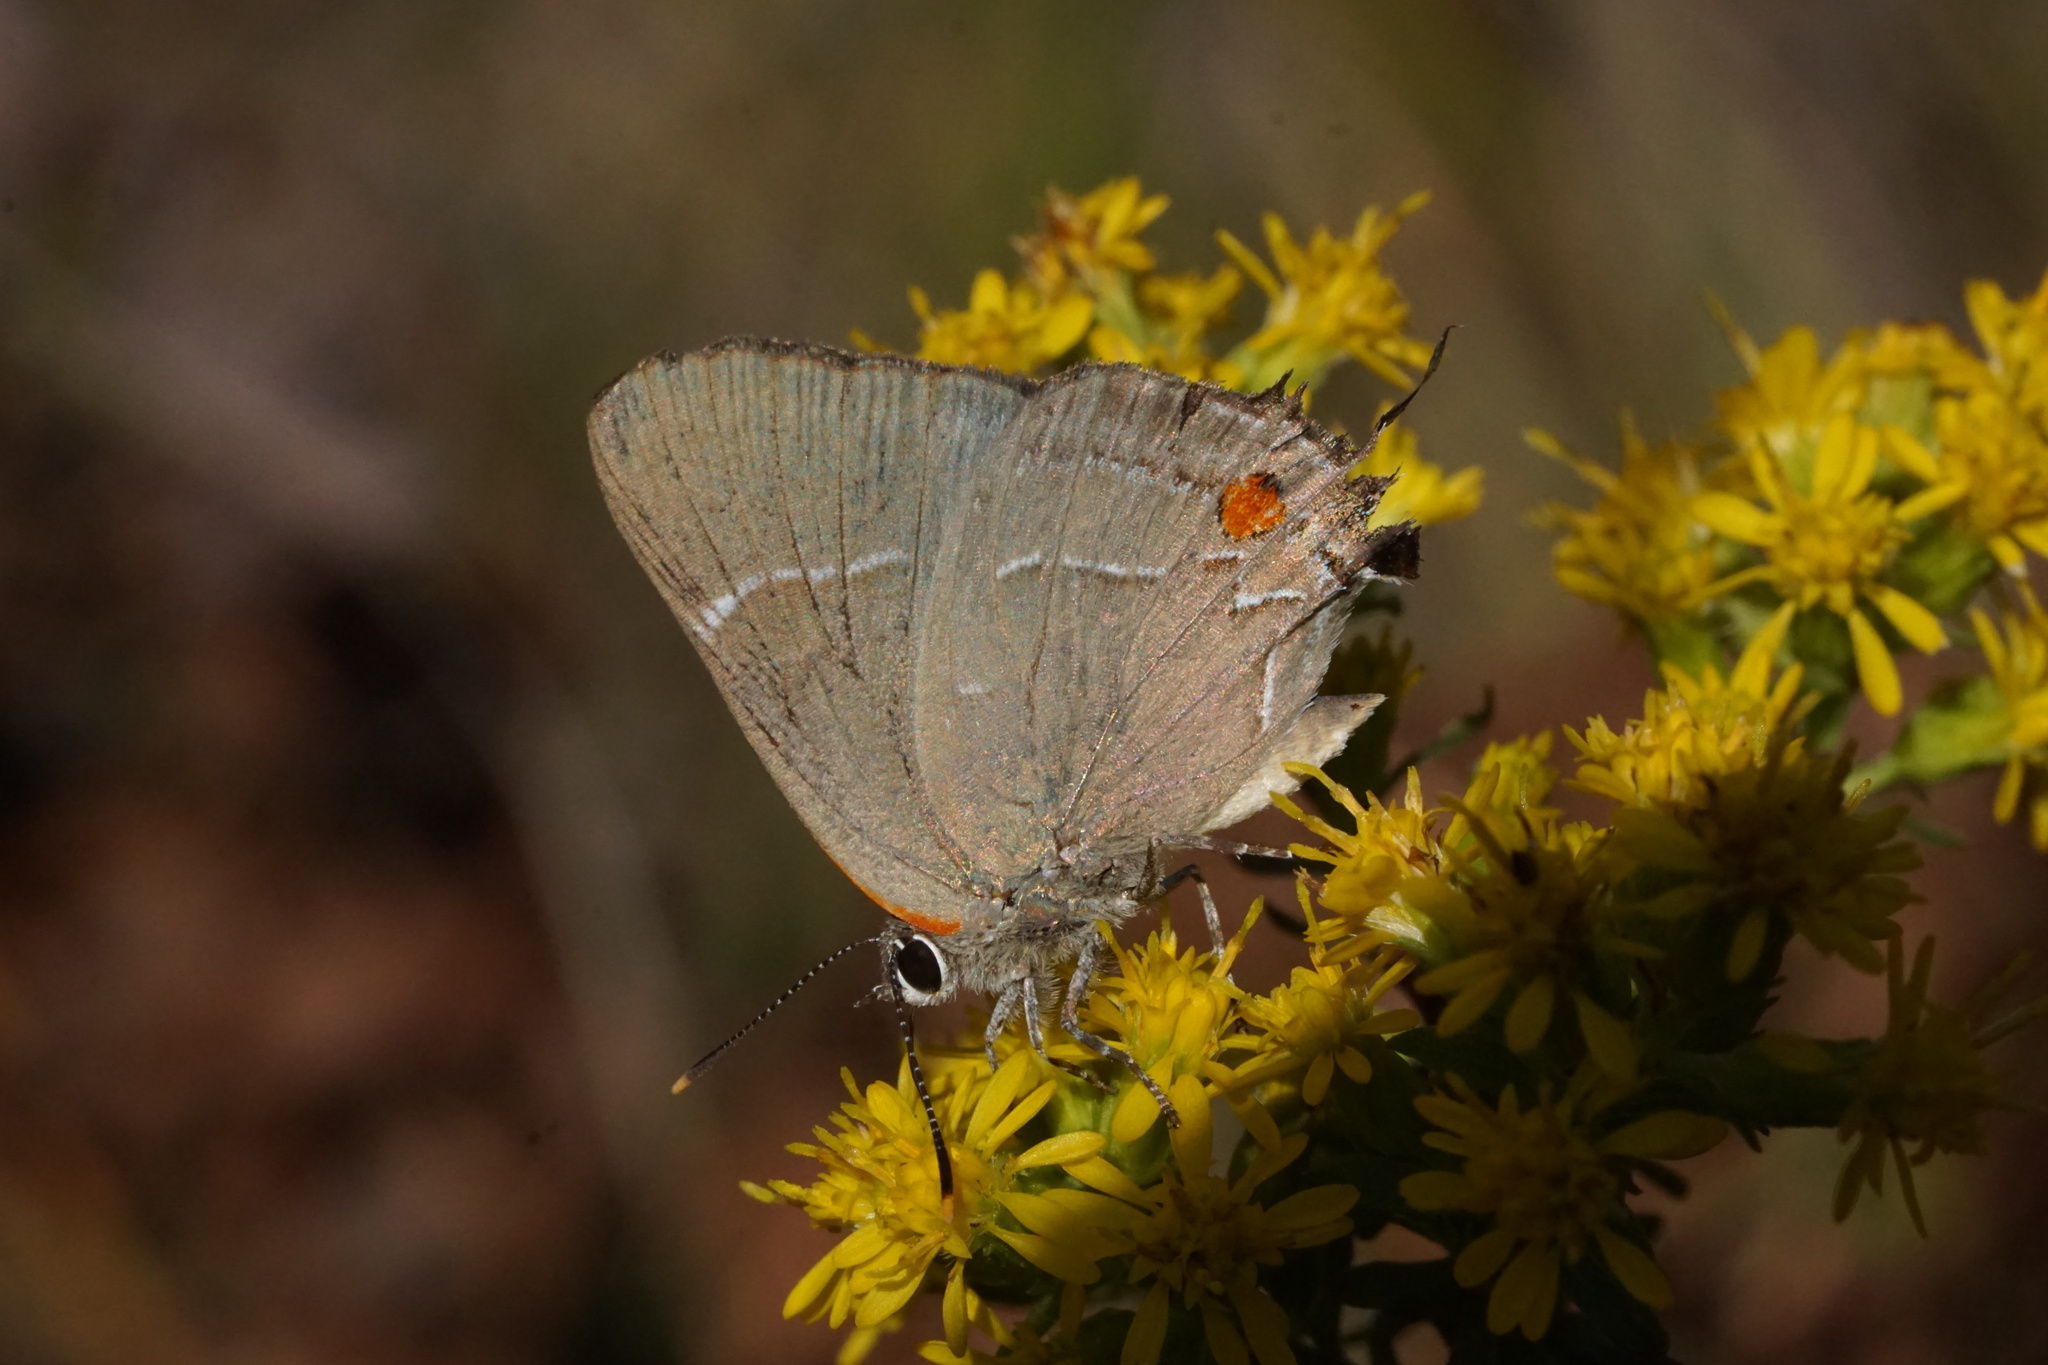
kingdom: Animalia
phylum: Arthropoda
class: Insecta
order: Lepidoptera
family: Lycaenidae
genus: Parrhasius
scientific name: Parrhasius m-album
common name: White m hairstreak
